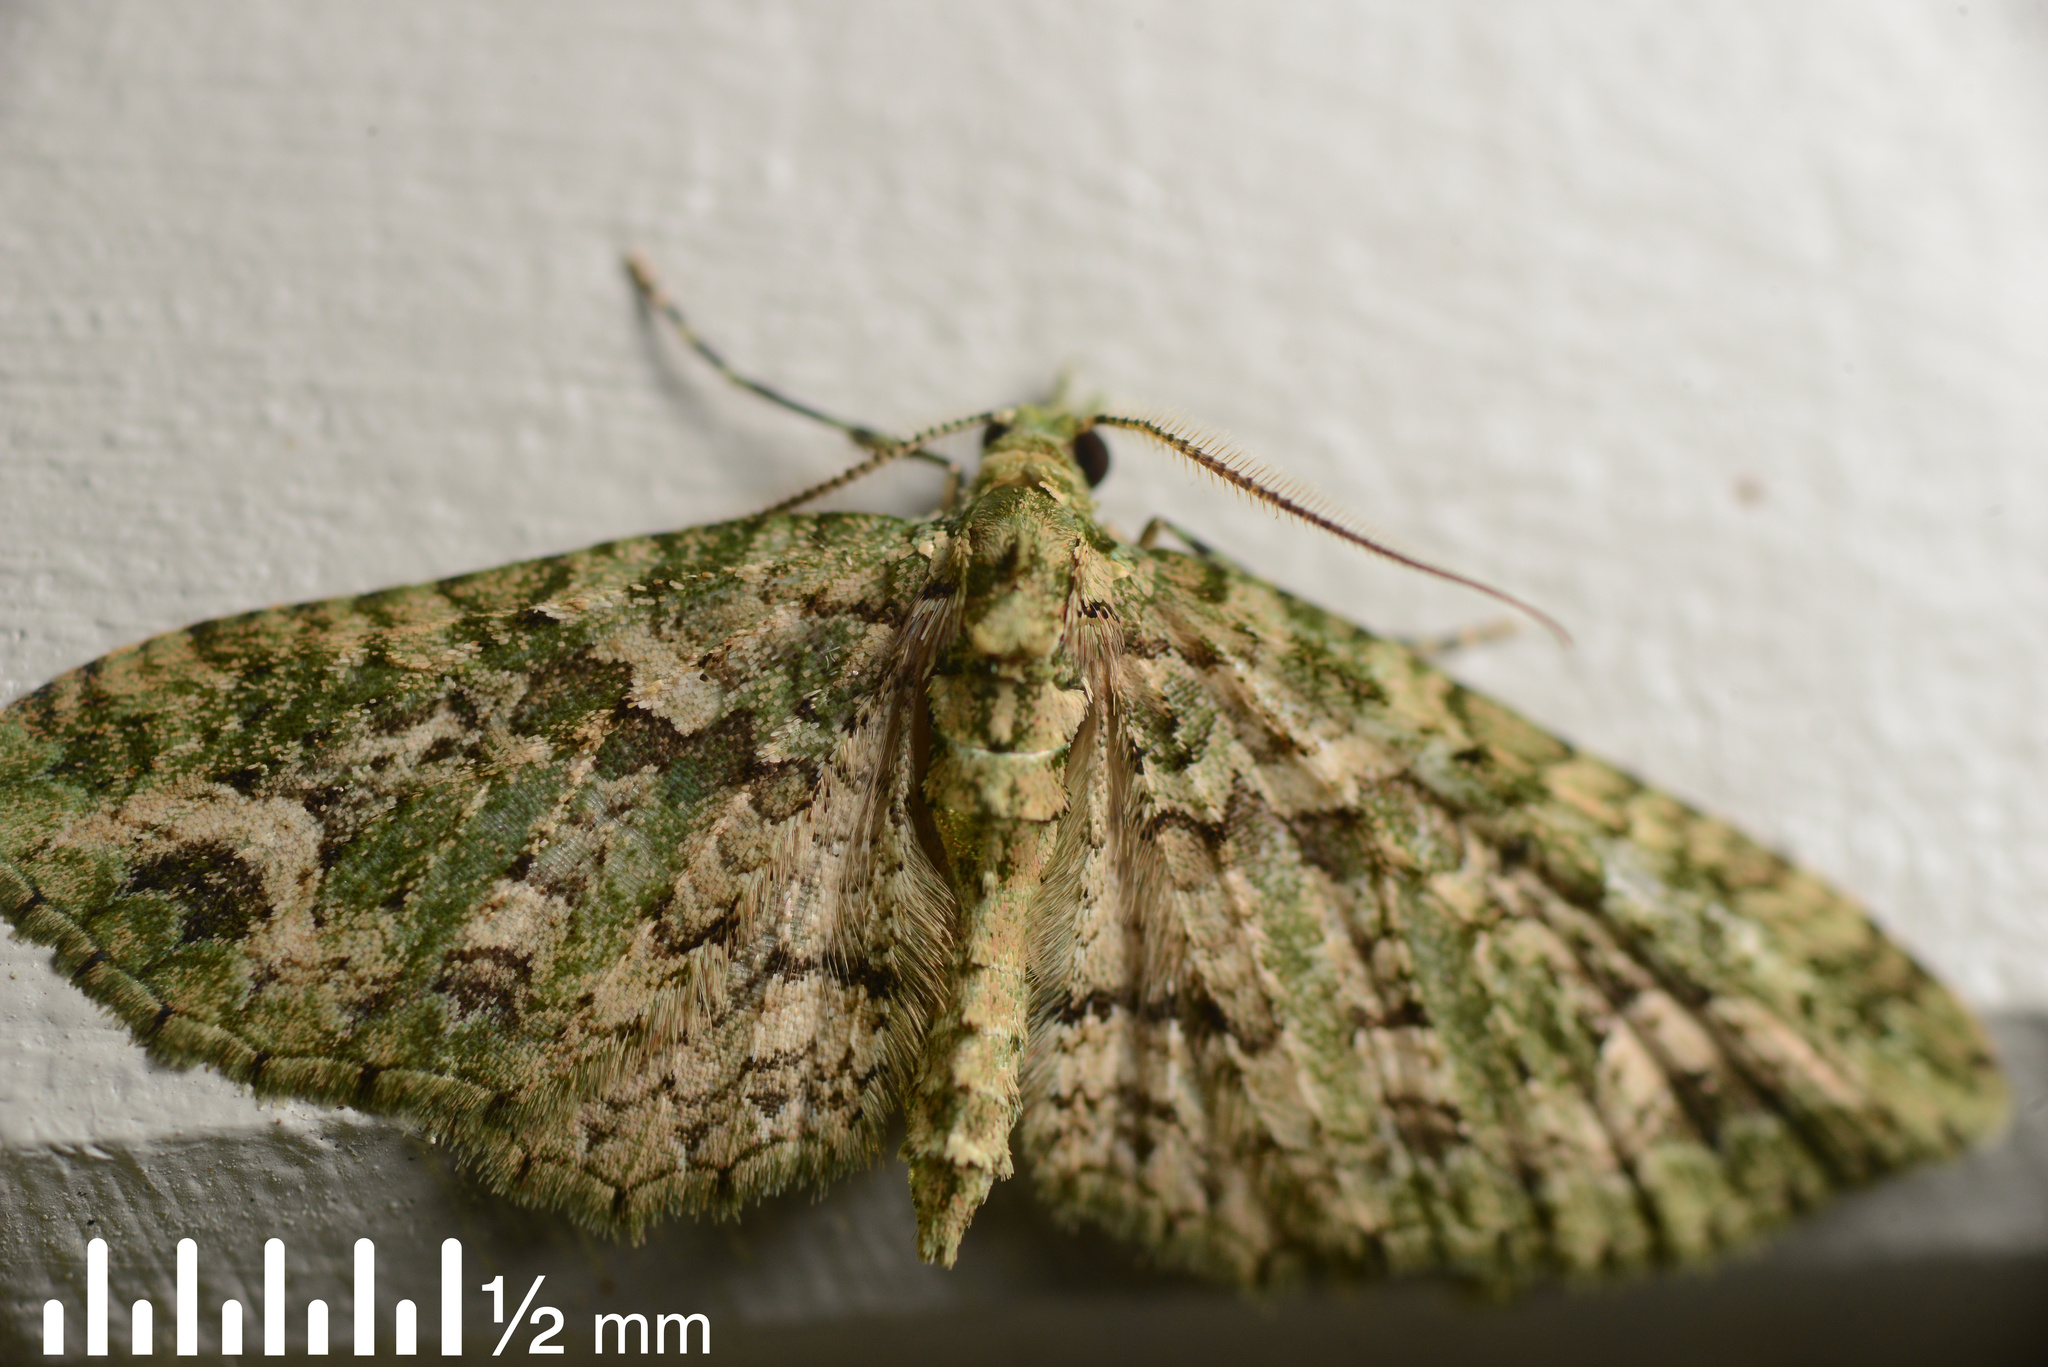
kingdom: Animalia
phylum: Arthropoda
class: Insecta
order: Lepidoptera
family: Geometridae
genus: Pasiphila
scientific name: Pasiphila muscosata
